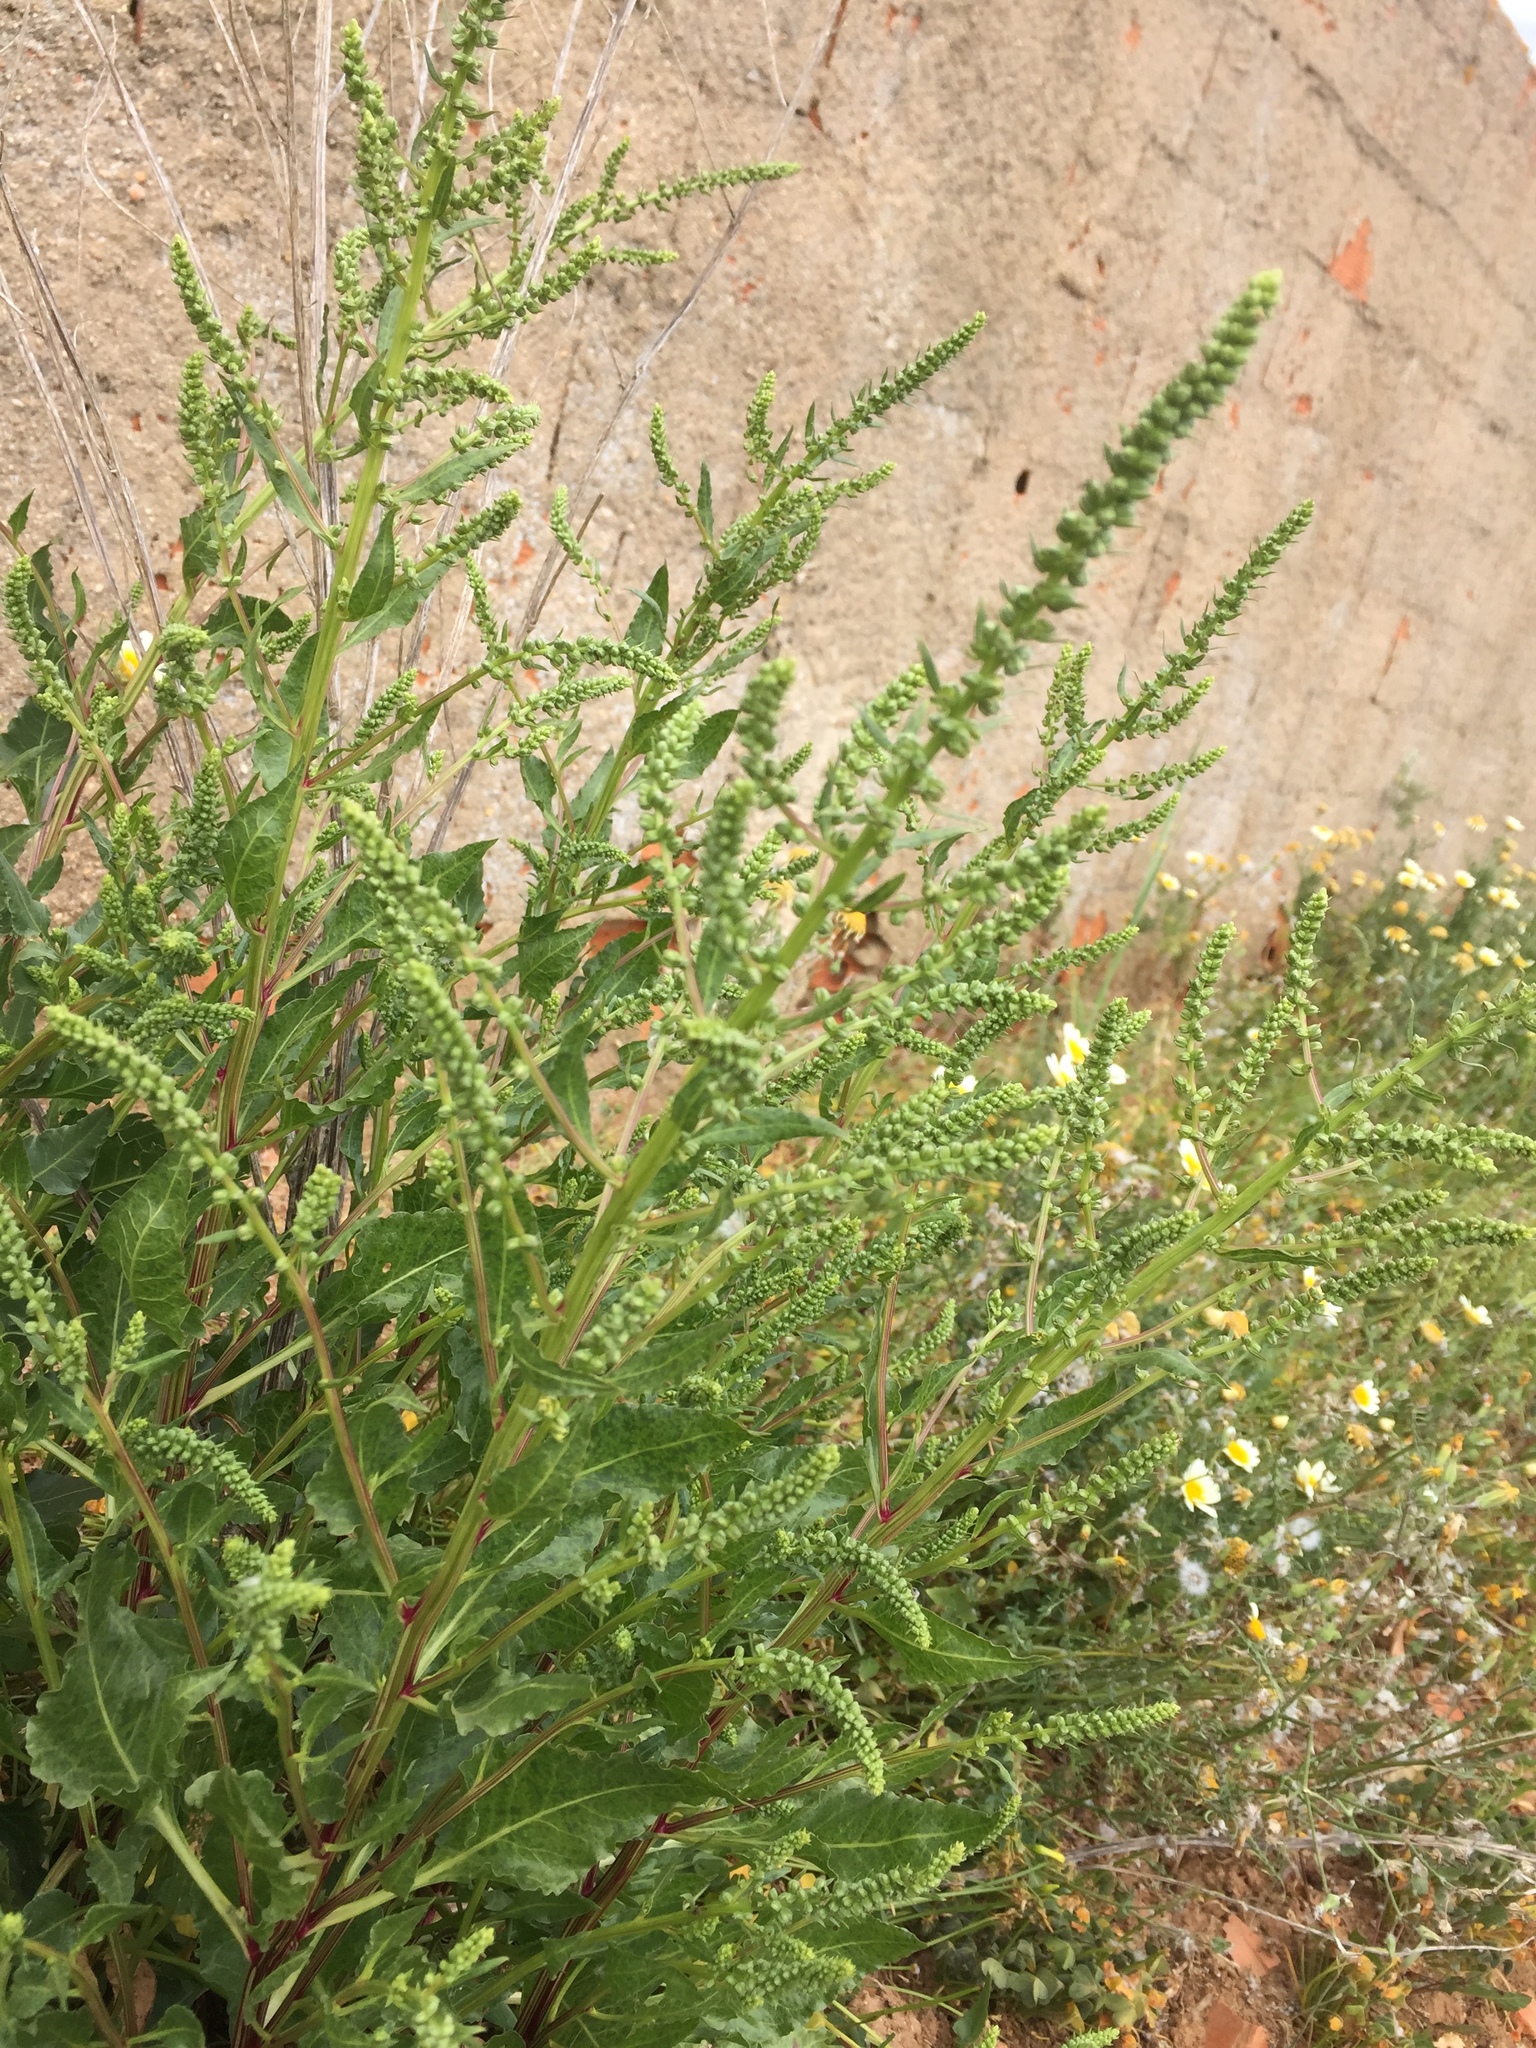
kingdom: Plantae
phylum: Tracheophyta
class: Magnoliopsida
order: Caryophyllales
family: Amaranthaceae
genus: Beta
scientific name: Beta vulgaris
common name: Beet
